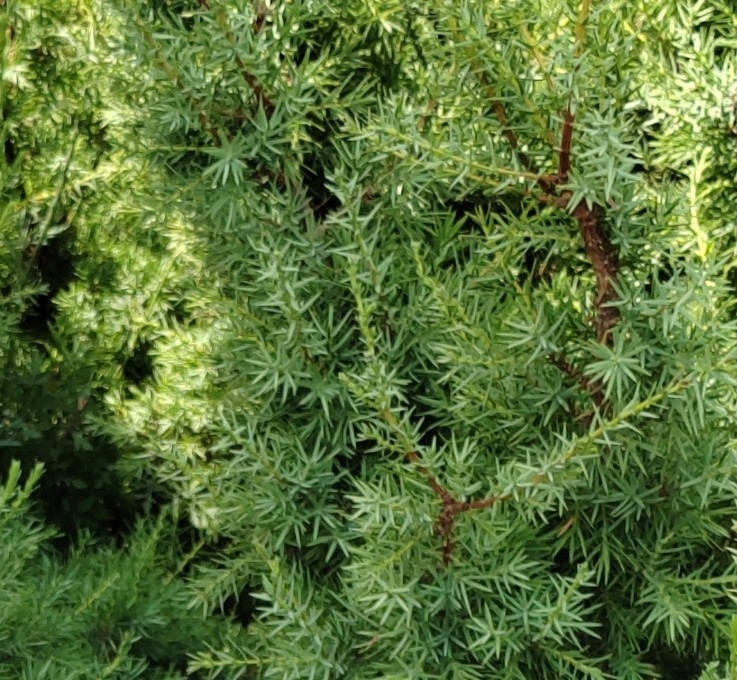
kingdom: Plantae
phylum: Tracheophyta
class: Pinopsida
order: Pinales
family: Cupressaceae
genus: Juniperus
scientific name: Juniperus oxycedrus
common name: Prickly juniper
